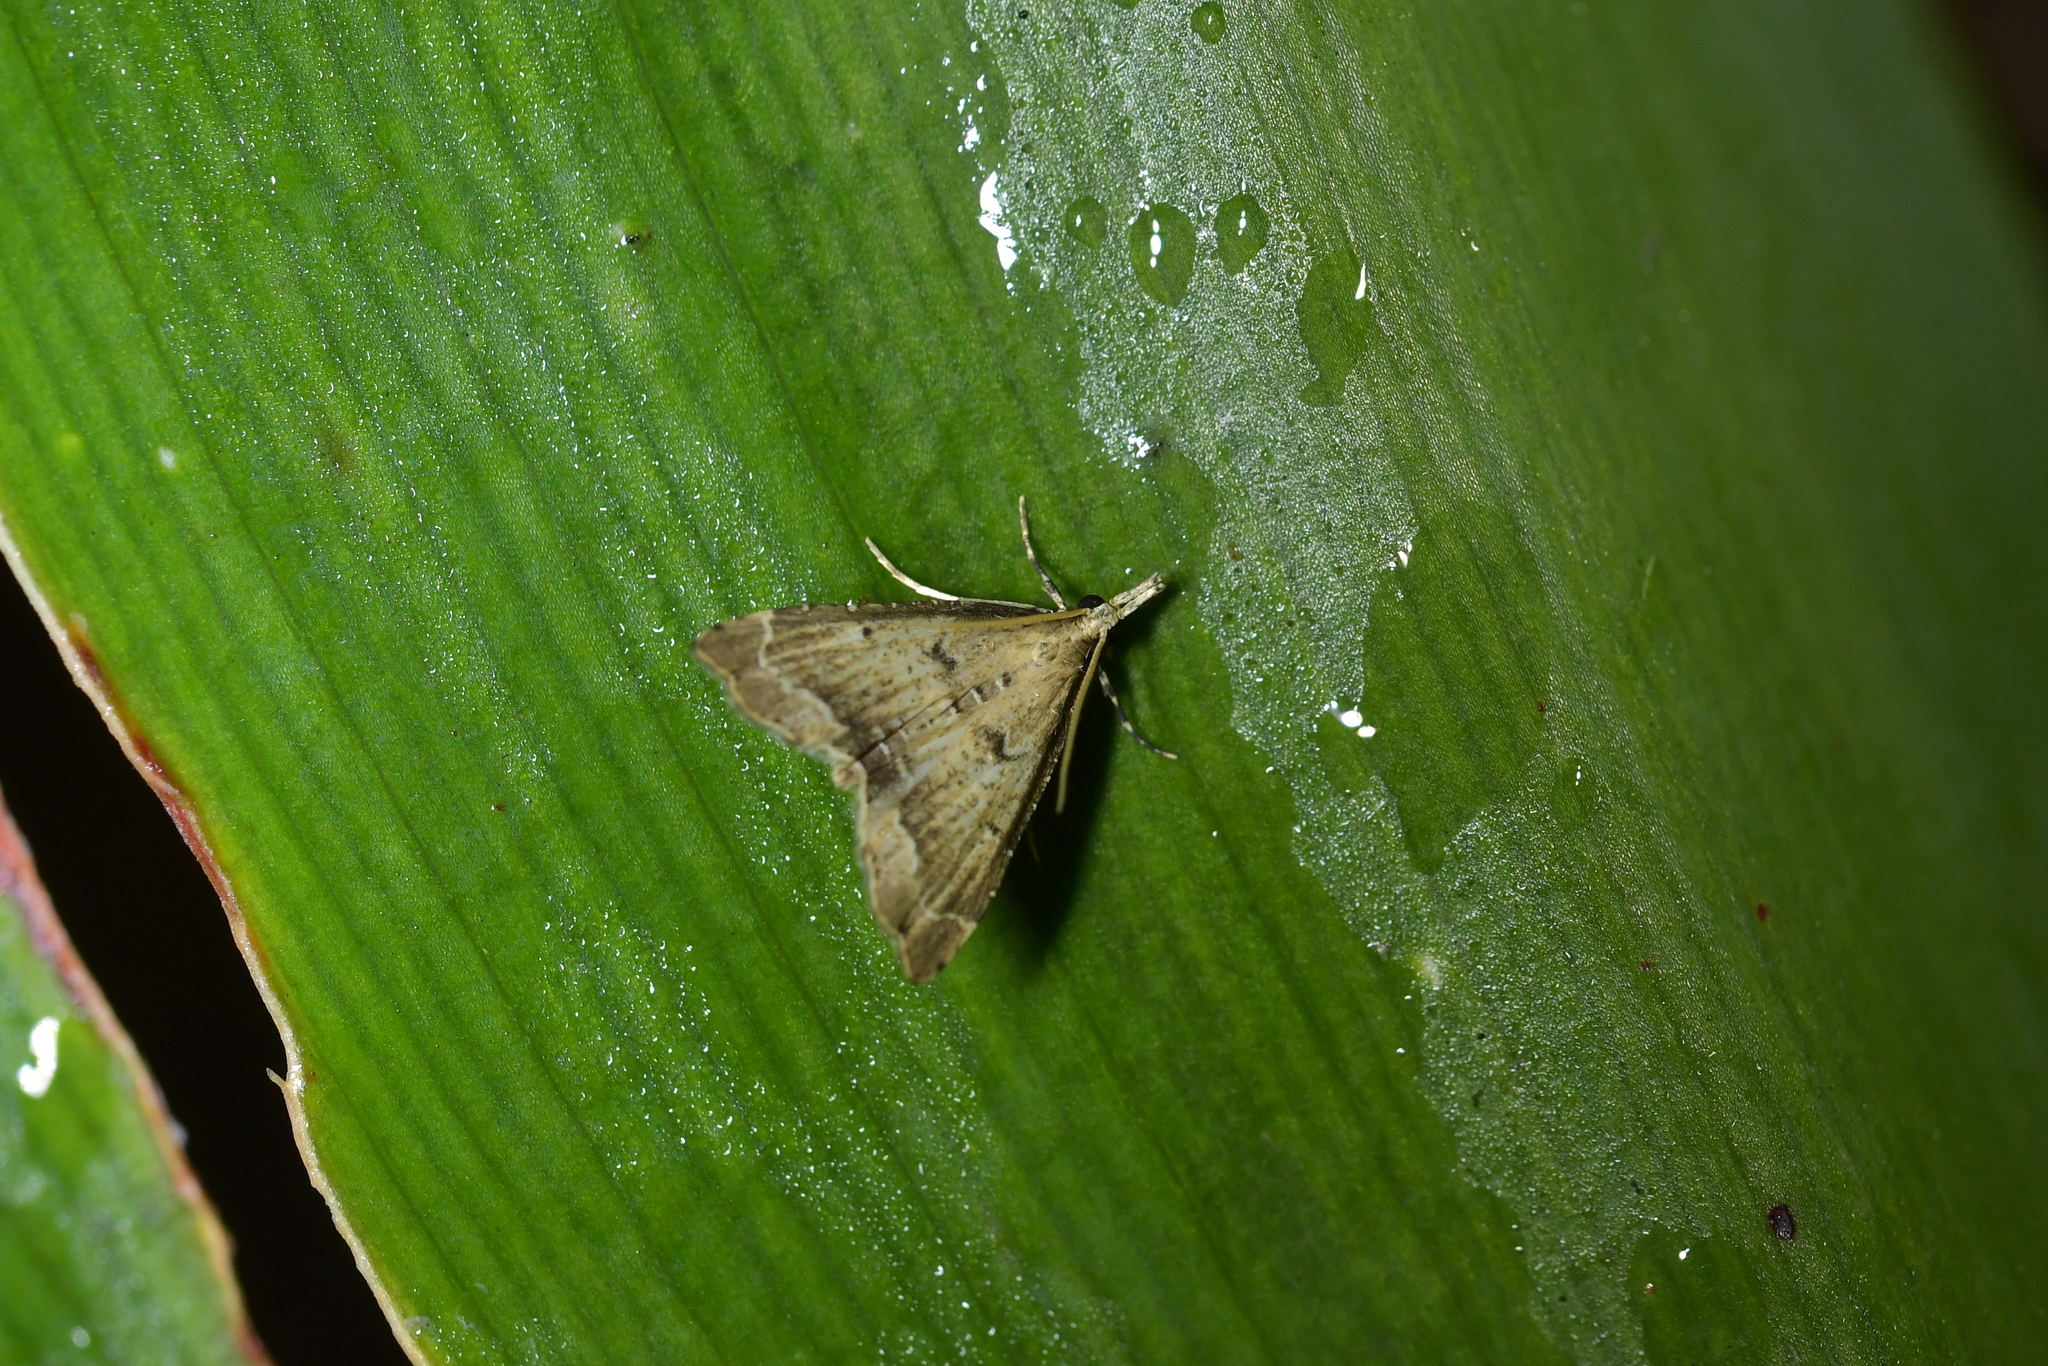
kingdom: Animalia
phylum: Arthropoda
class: Insecta
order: Lepidoptera
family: Crambidae
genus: Diplopseustis
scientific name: Diplopseustis perieresalis
